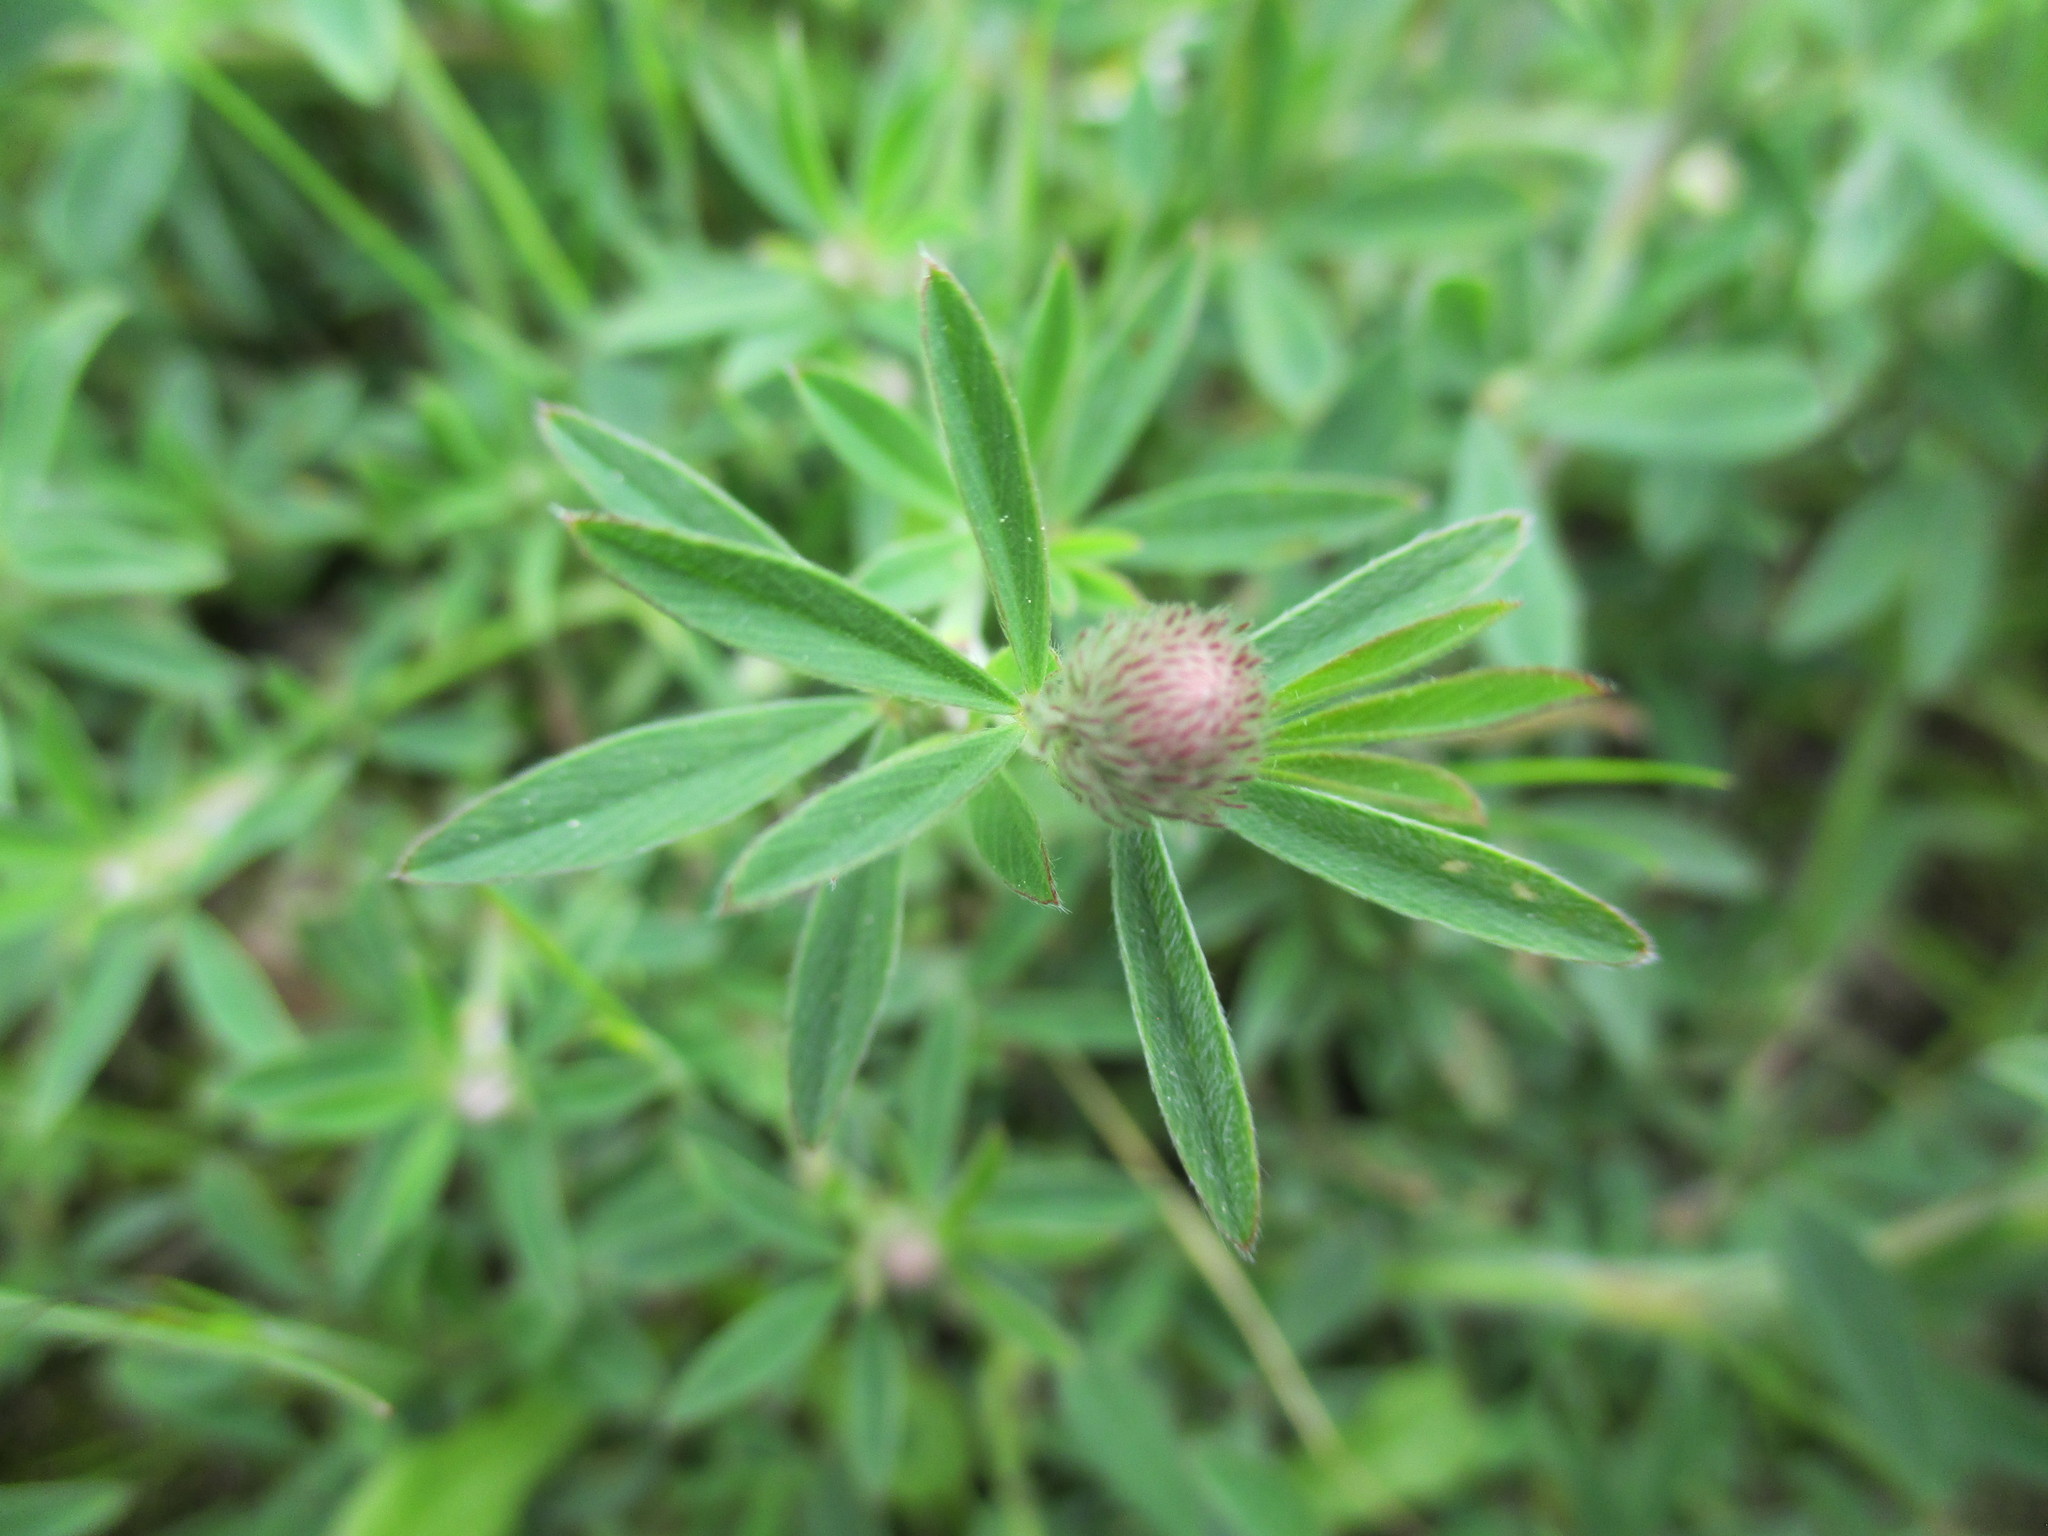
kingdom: Plantae
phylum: Tracheophyta
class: Magnoliopsida
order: Fabales
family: Fabaceae
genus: Trifolium
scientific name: Trifolium arvense
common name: Hare's-foot clover
